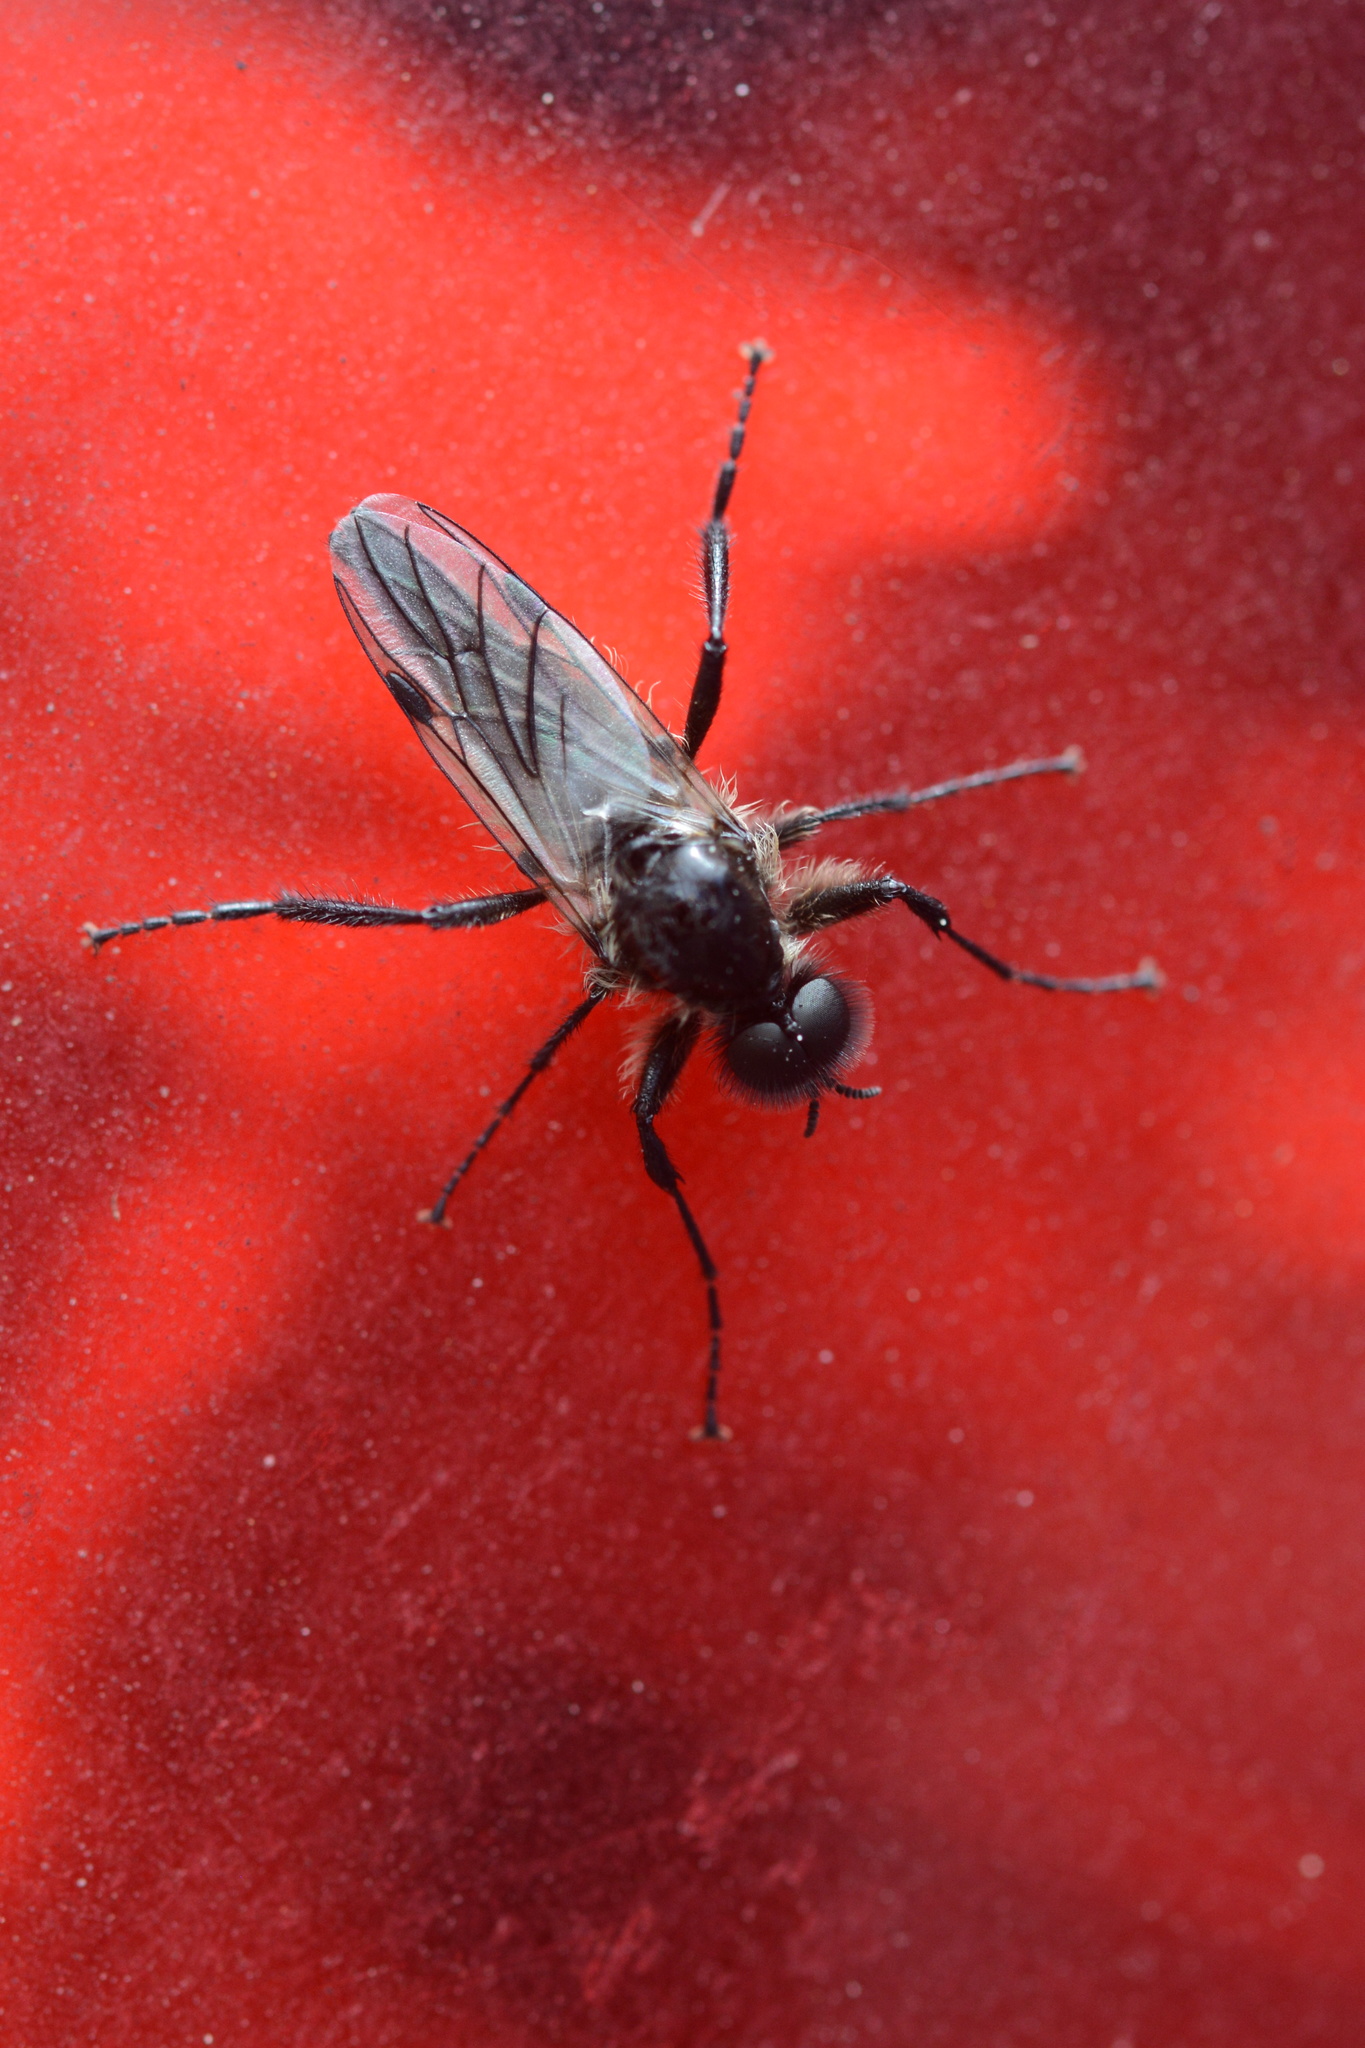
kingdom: Animalia
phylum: Arthropoda
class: Insecta
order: Diptera
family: Bibionidae
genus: Bibio
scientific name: Bibio albipennis
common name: White-winged march fly
